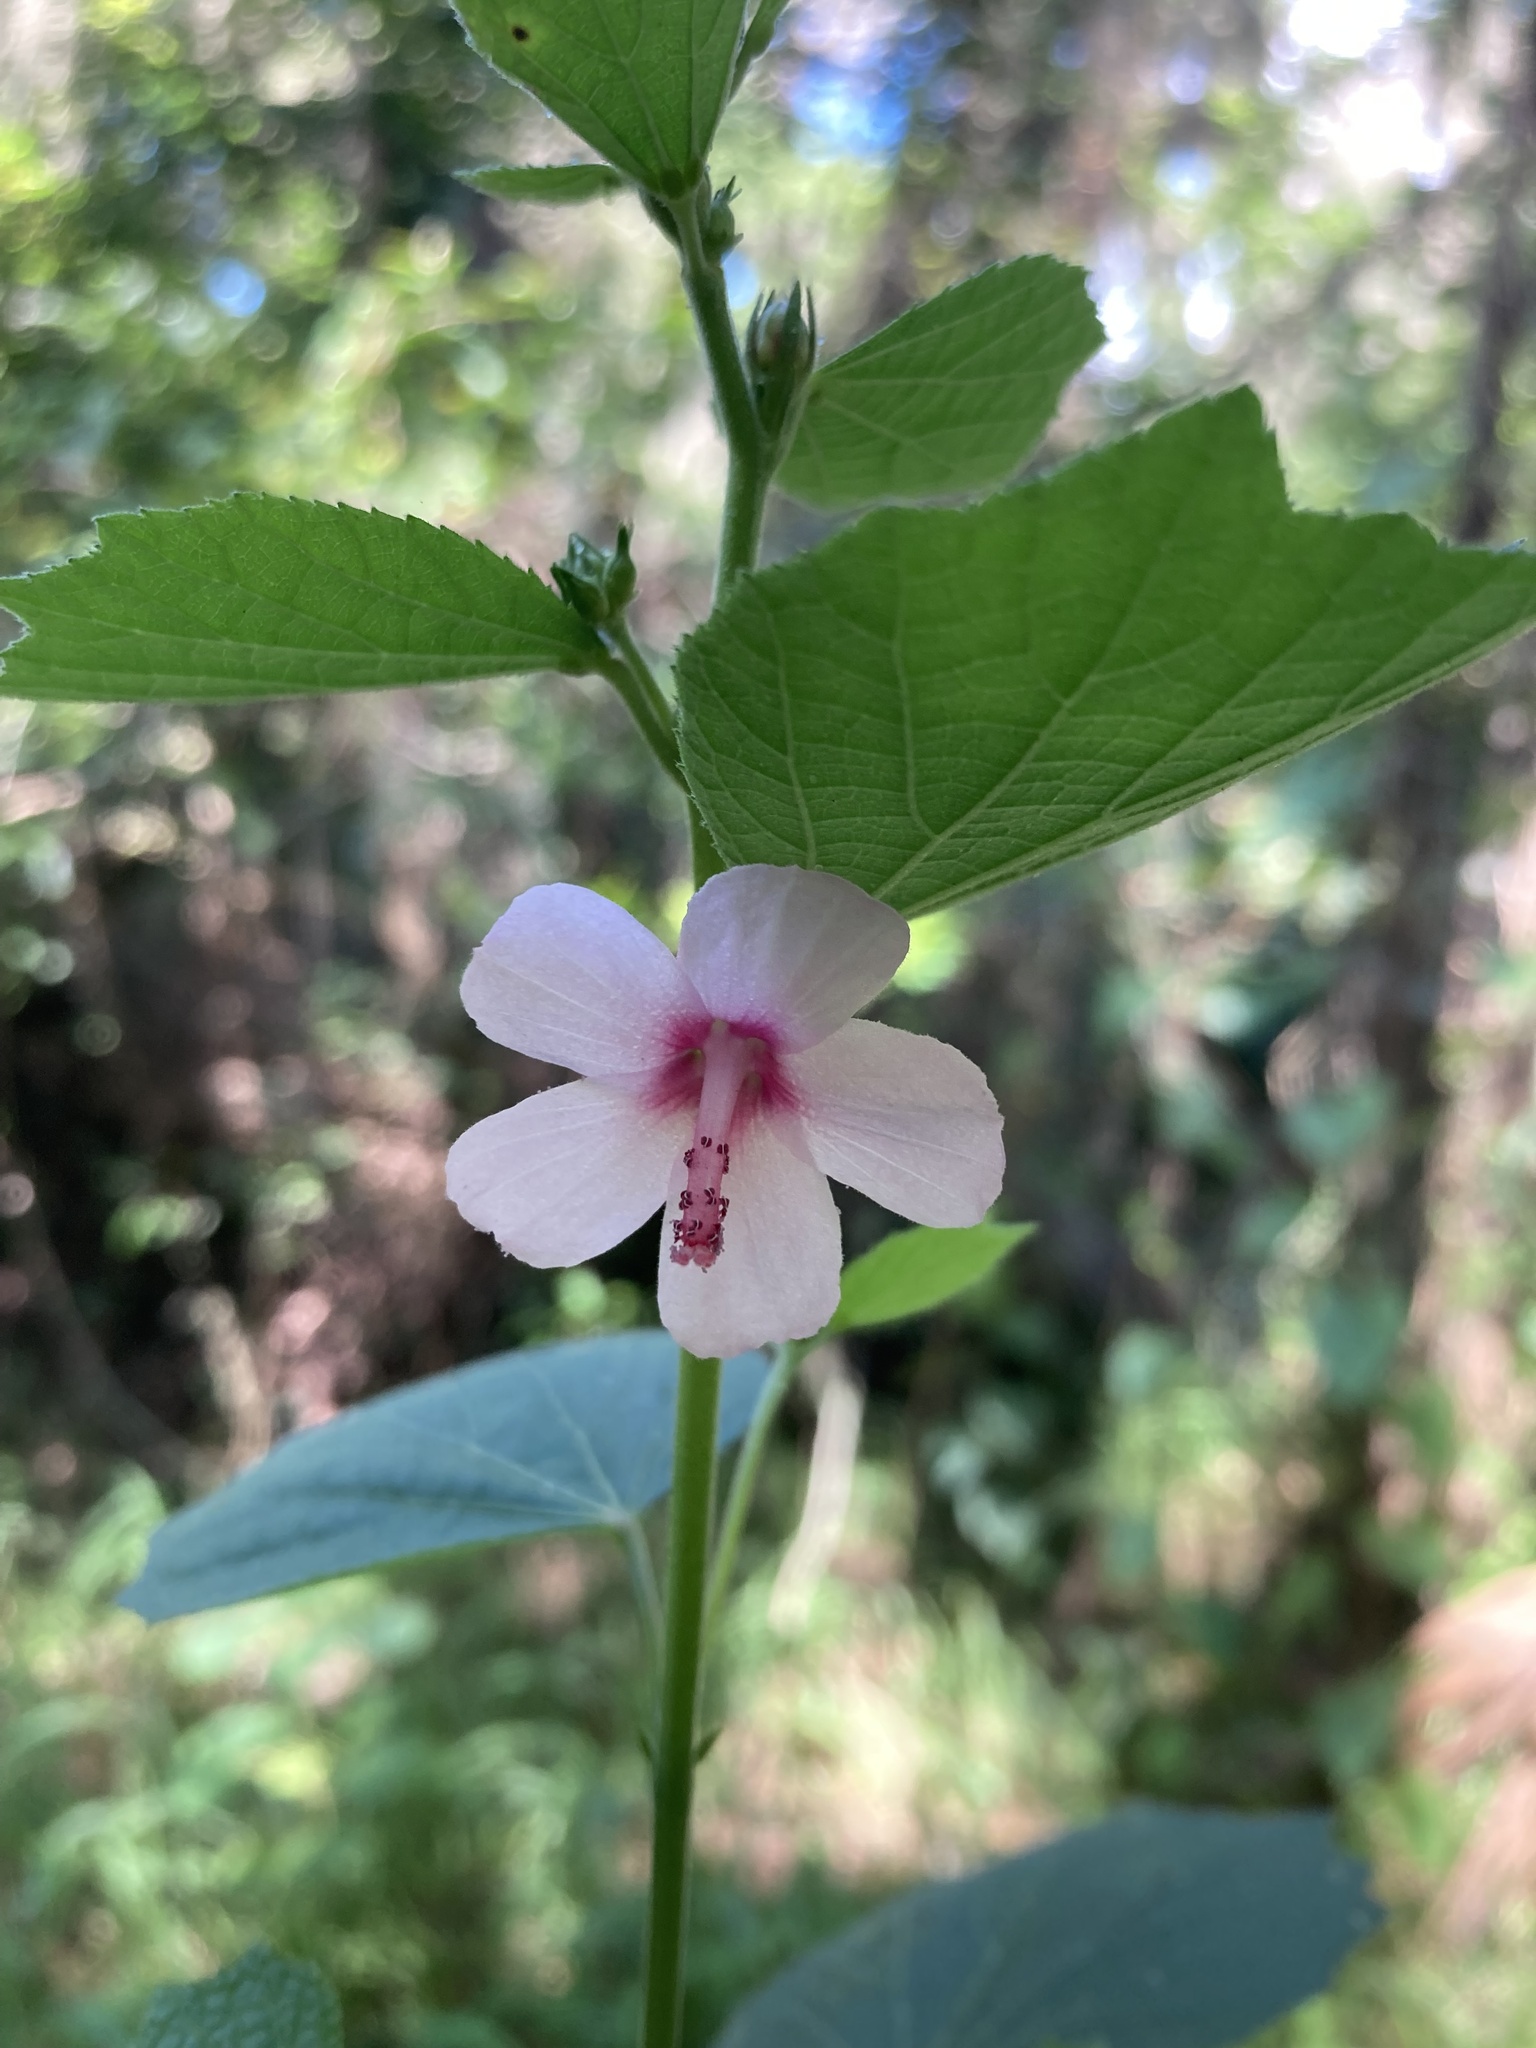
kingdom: Plantae
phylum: Tracheophyta
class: Magnoliopsida
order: Malvales
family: Malvaceae
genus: Urena
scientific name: Urena lobata
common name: Caesarweed
